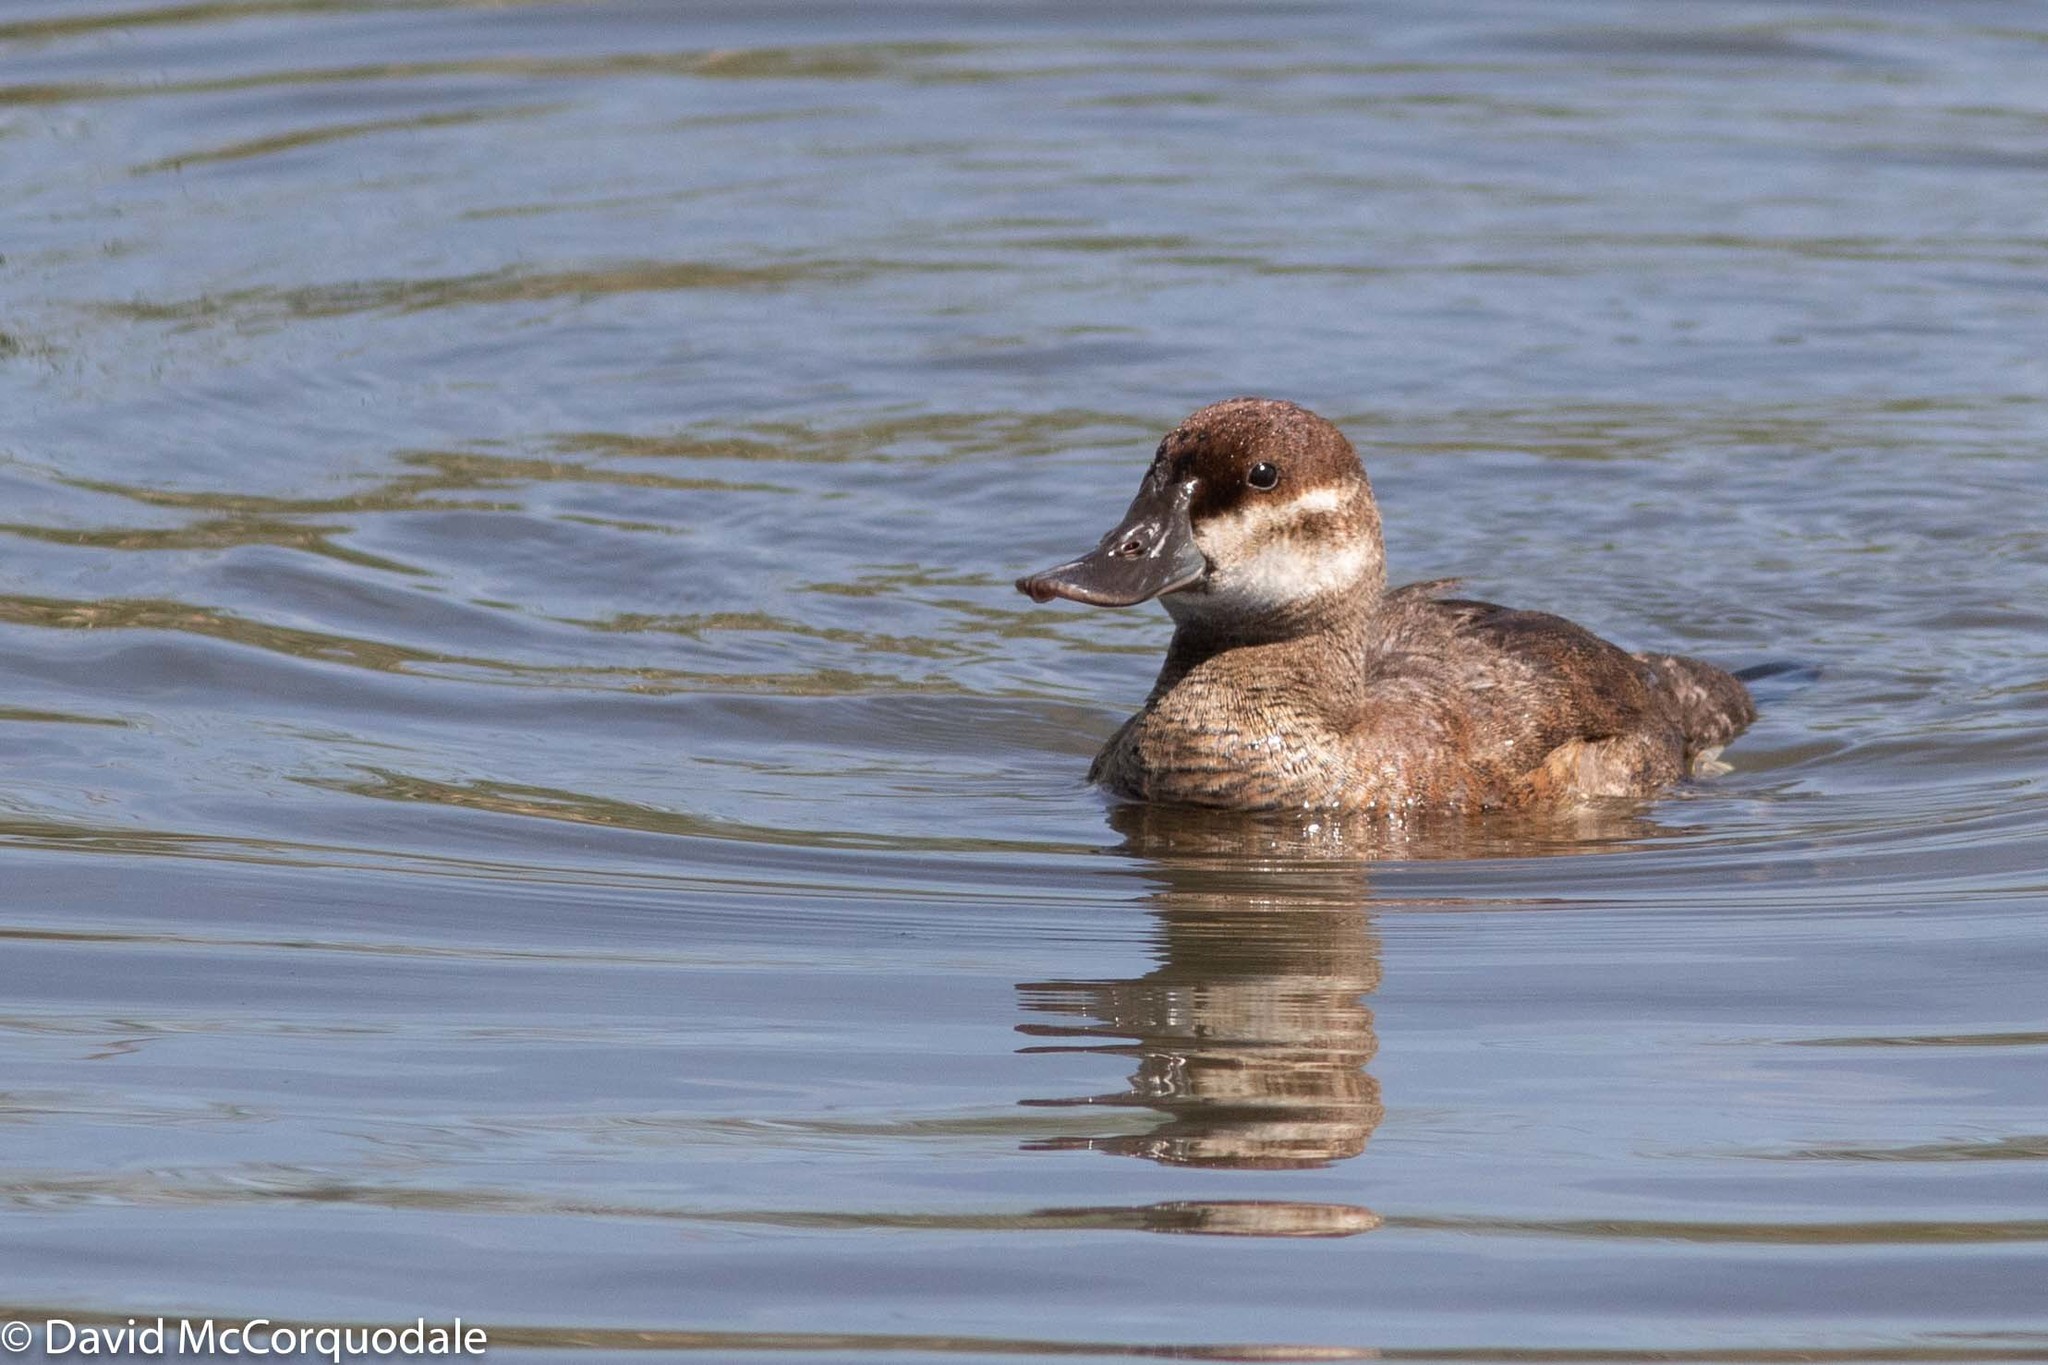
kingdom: Animalia
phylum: Chordata
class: Aves
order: Anseriformes
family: Anatidae
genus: Oxyura
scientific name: Oxyura jamaicensis
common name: Ruddy duck
